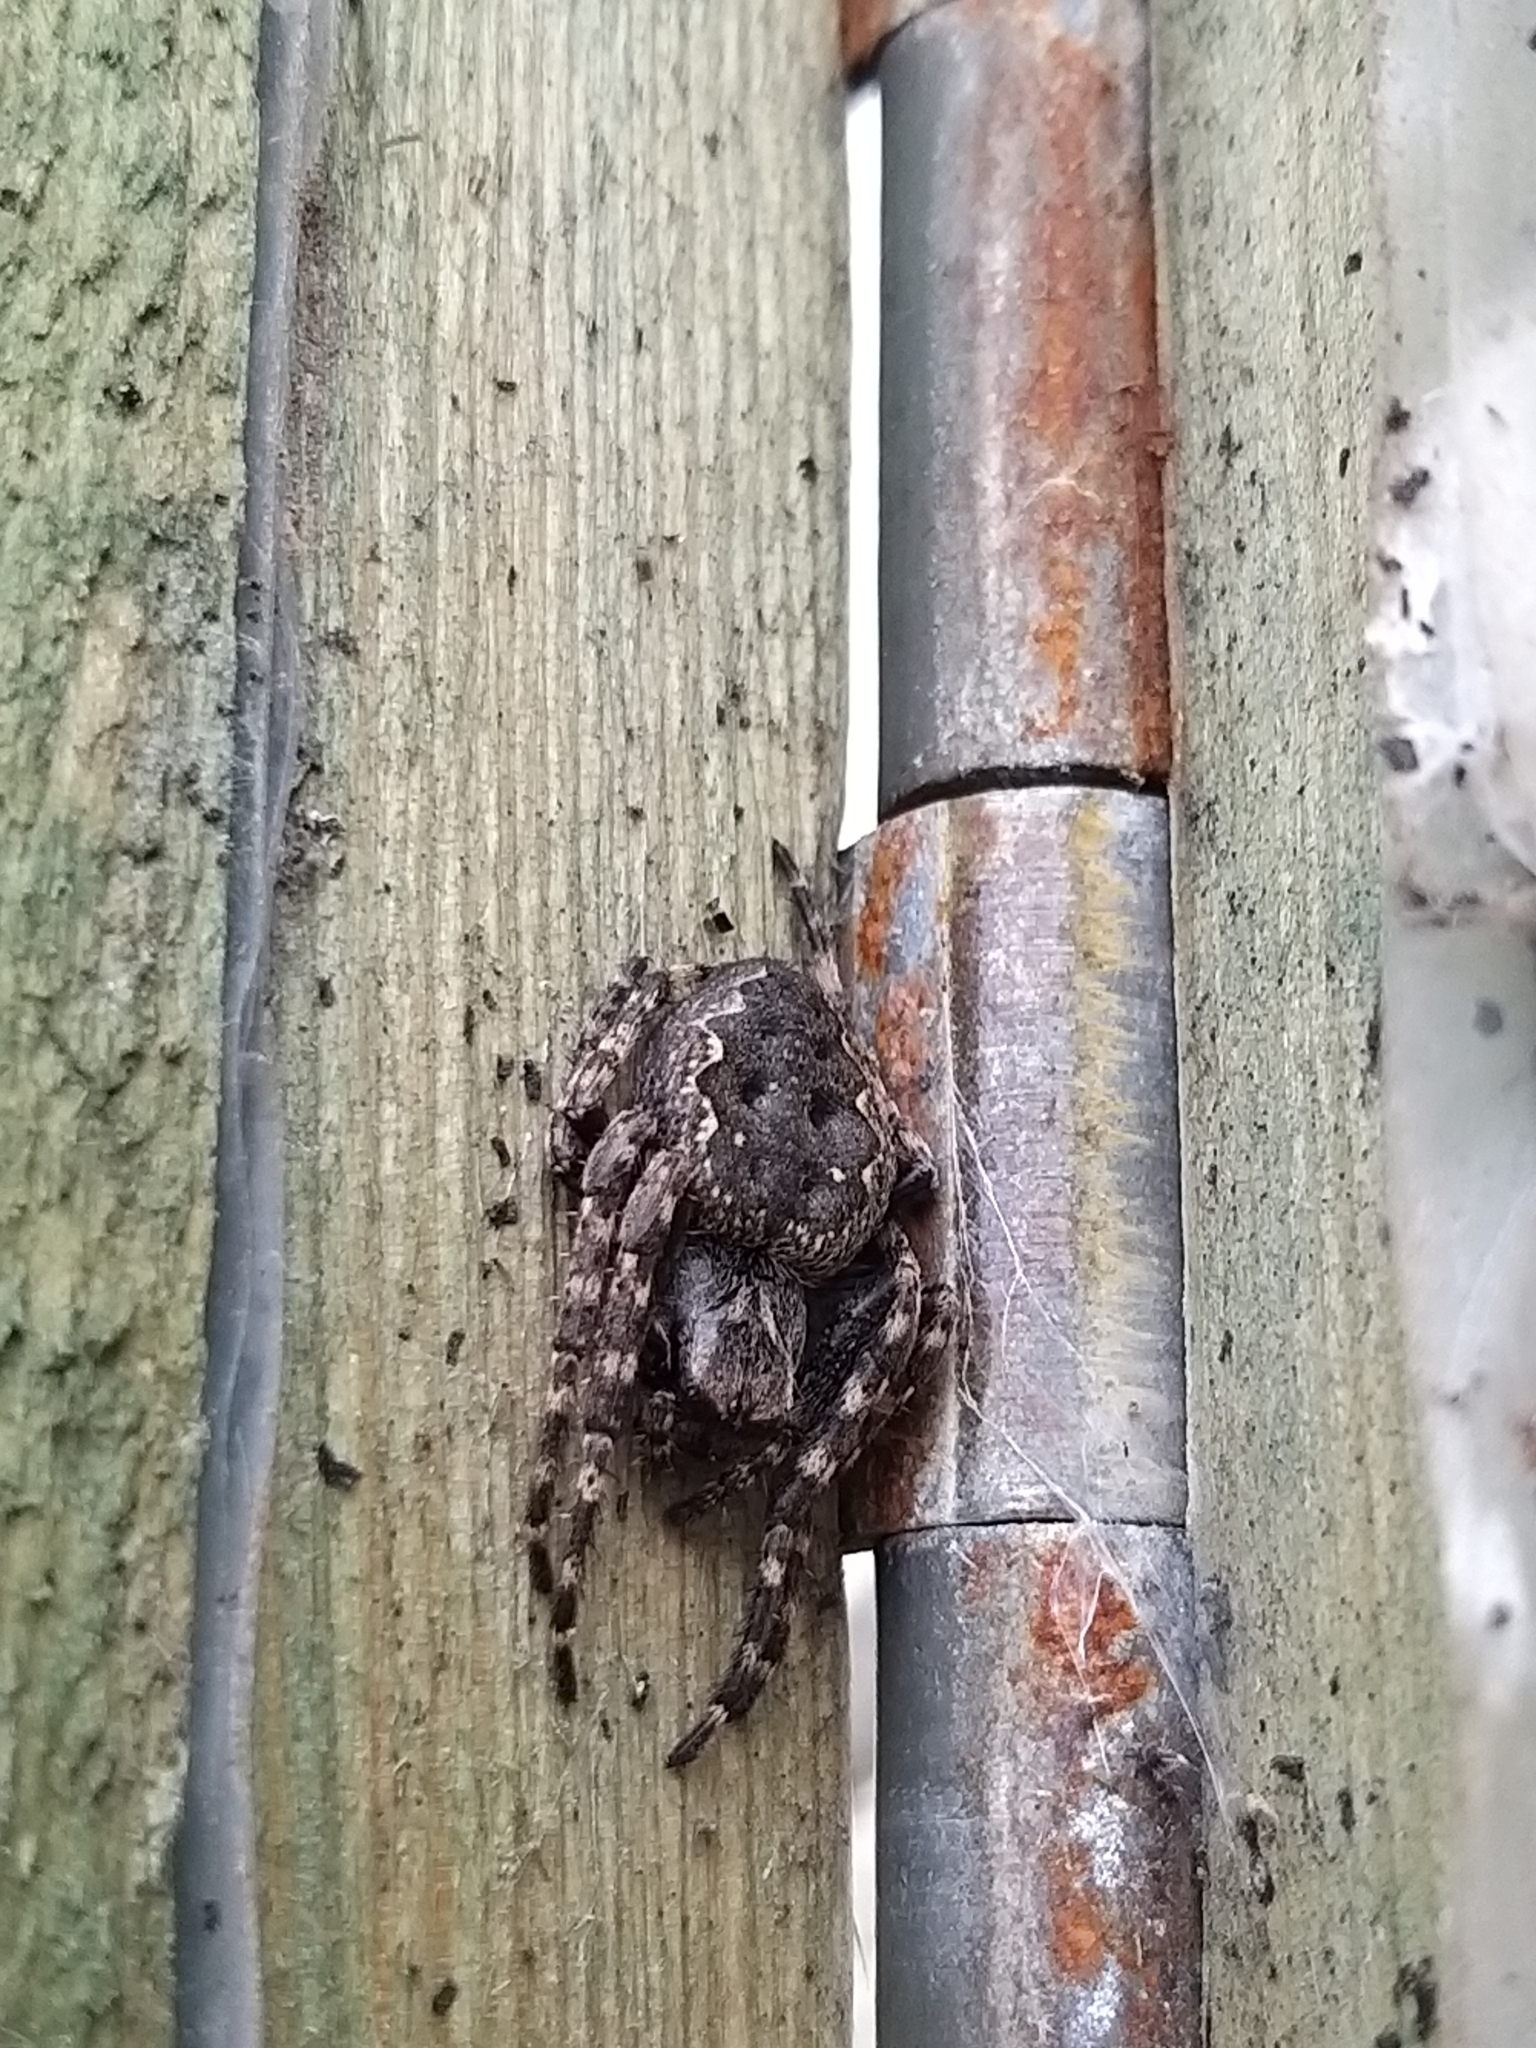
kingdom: Animalia
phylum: Arthropoda
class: Arachnida
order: Araneae
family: Araneidae
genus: Nuctenea
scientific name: Nuctenea umbratica
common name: Toad spider
